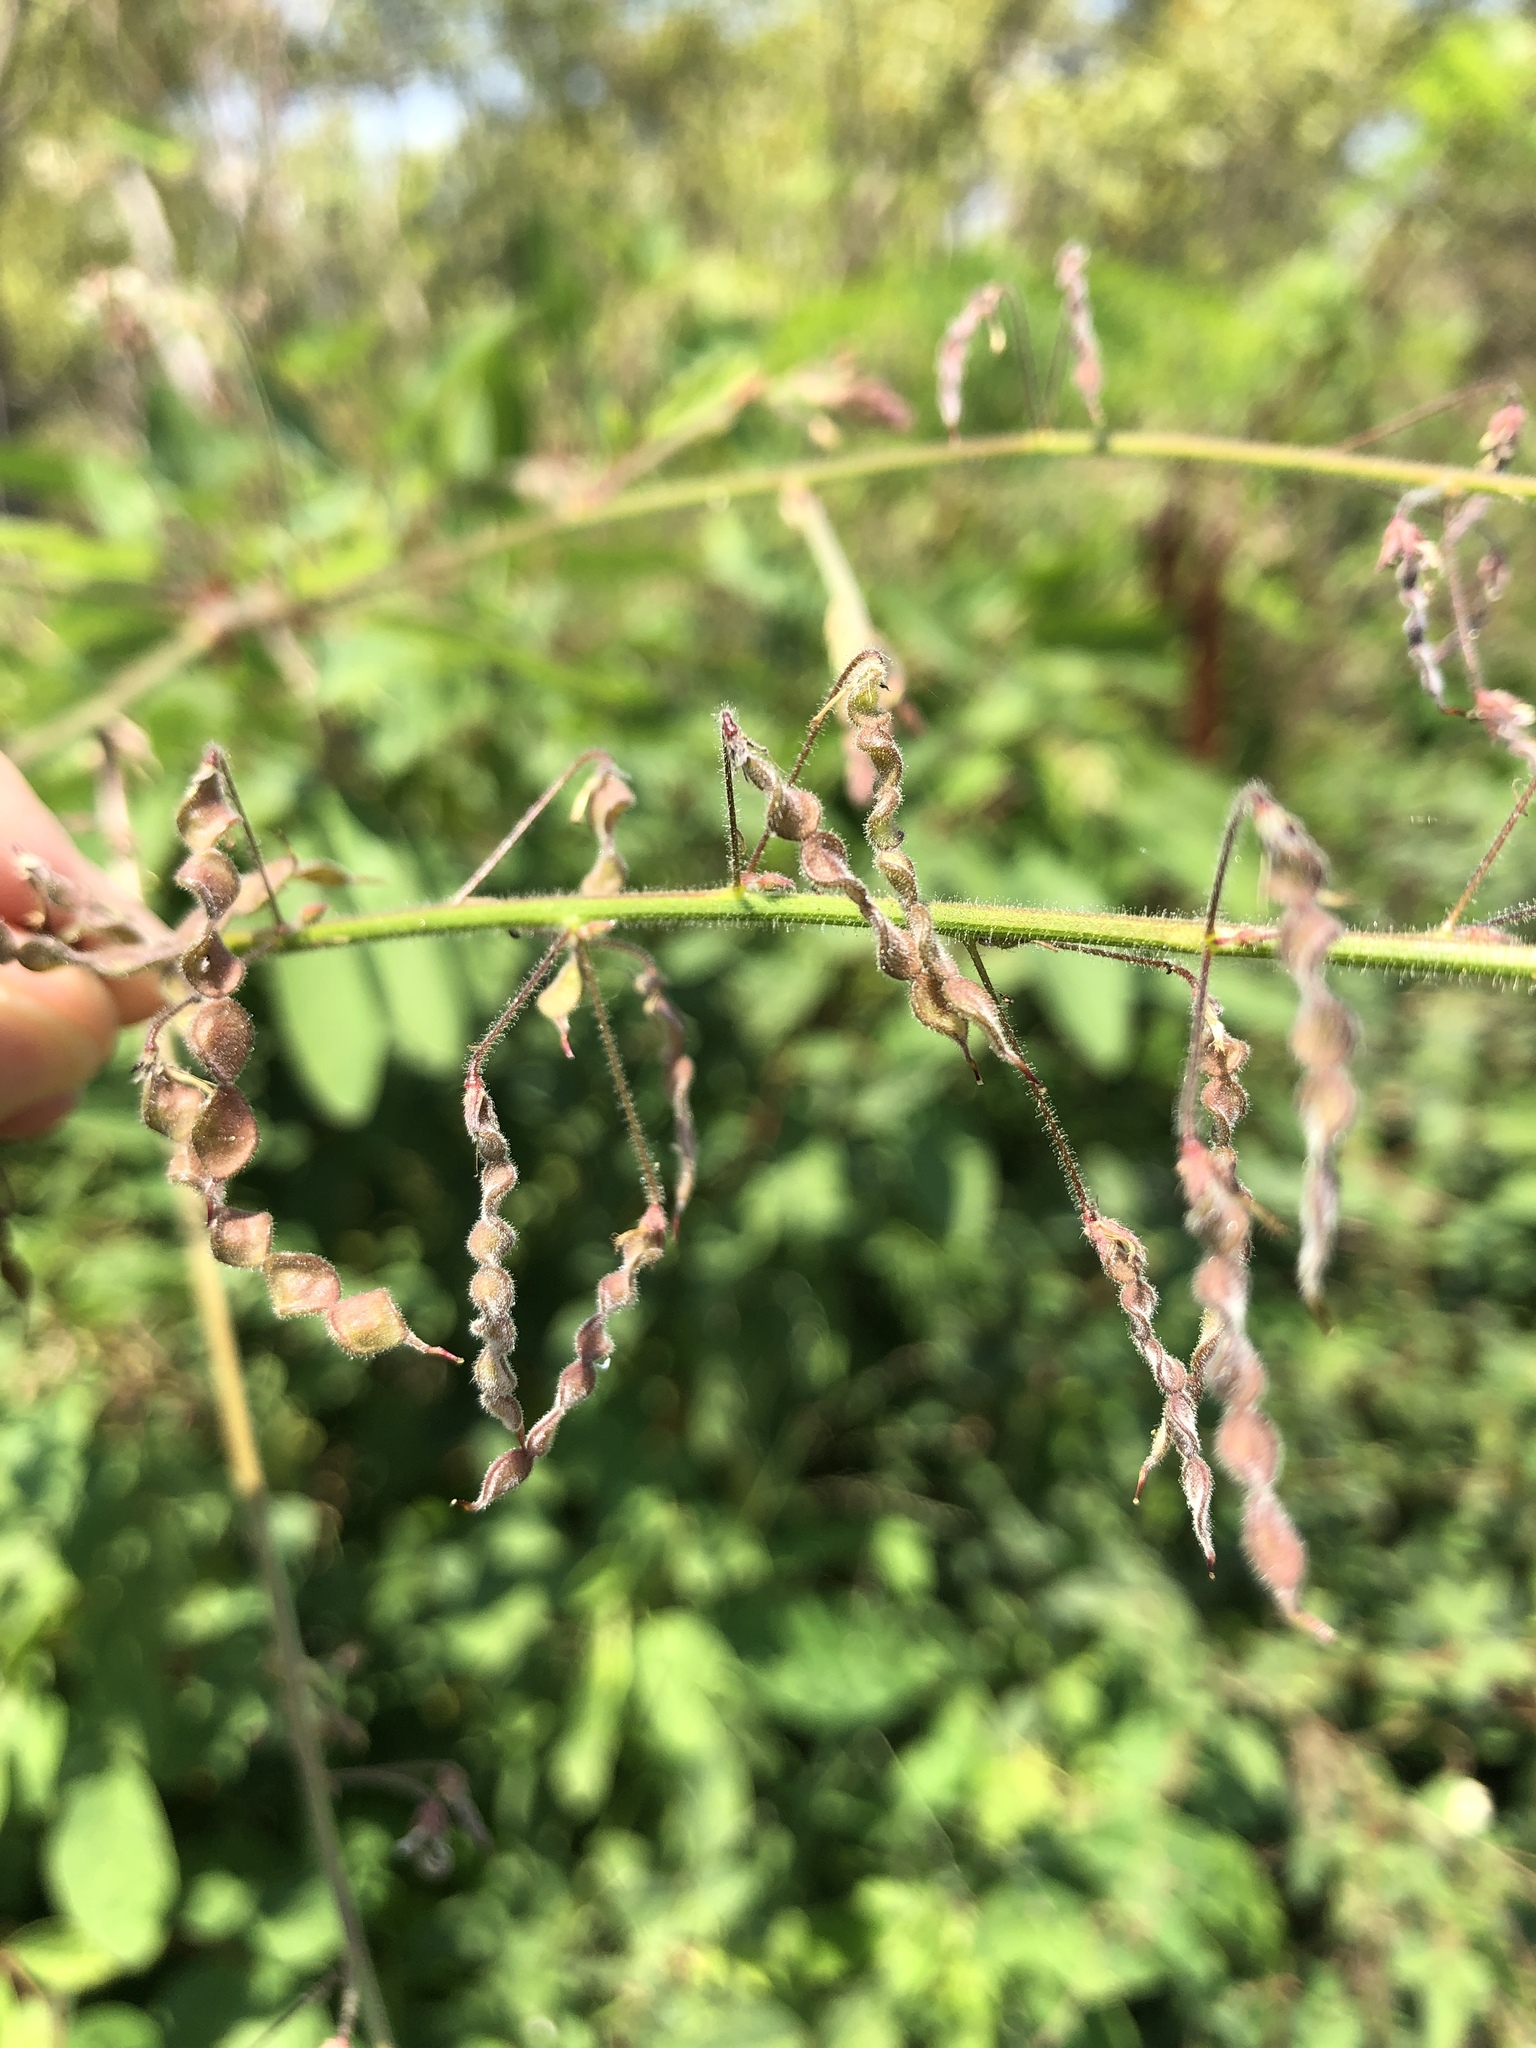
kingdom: Plantae
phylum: Tracheophyta
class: Magnoliopsida
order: Fabales
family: Fabaceae
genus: Desmodium
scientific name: Desmodium tortuosum
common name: Dixie ticktrefoil
